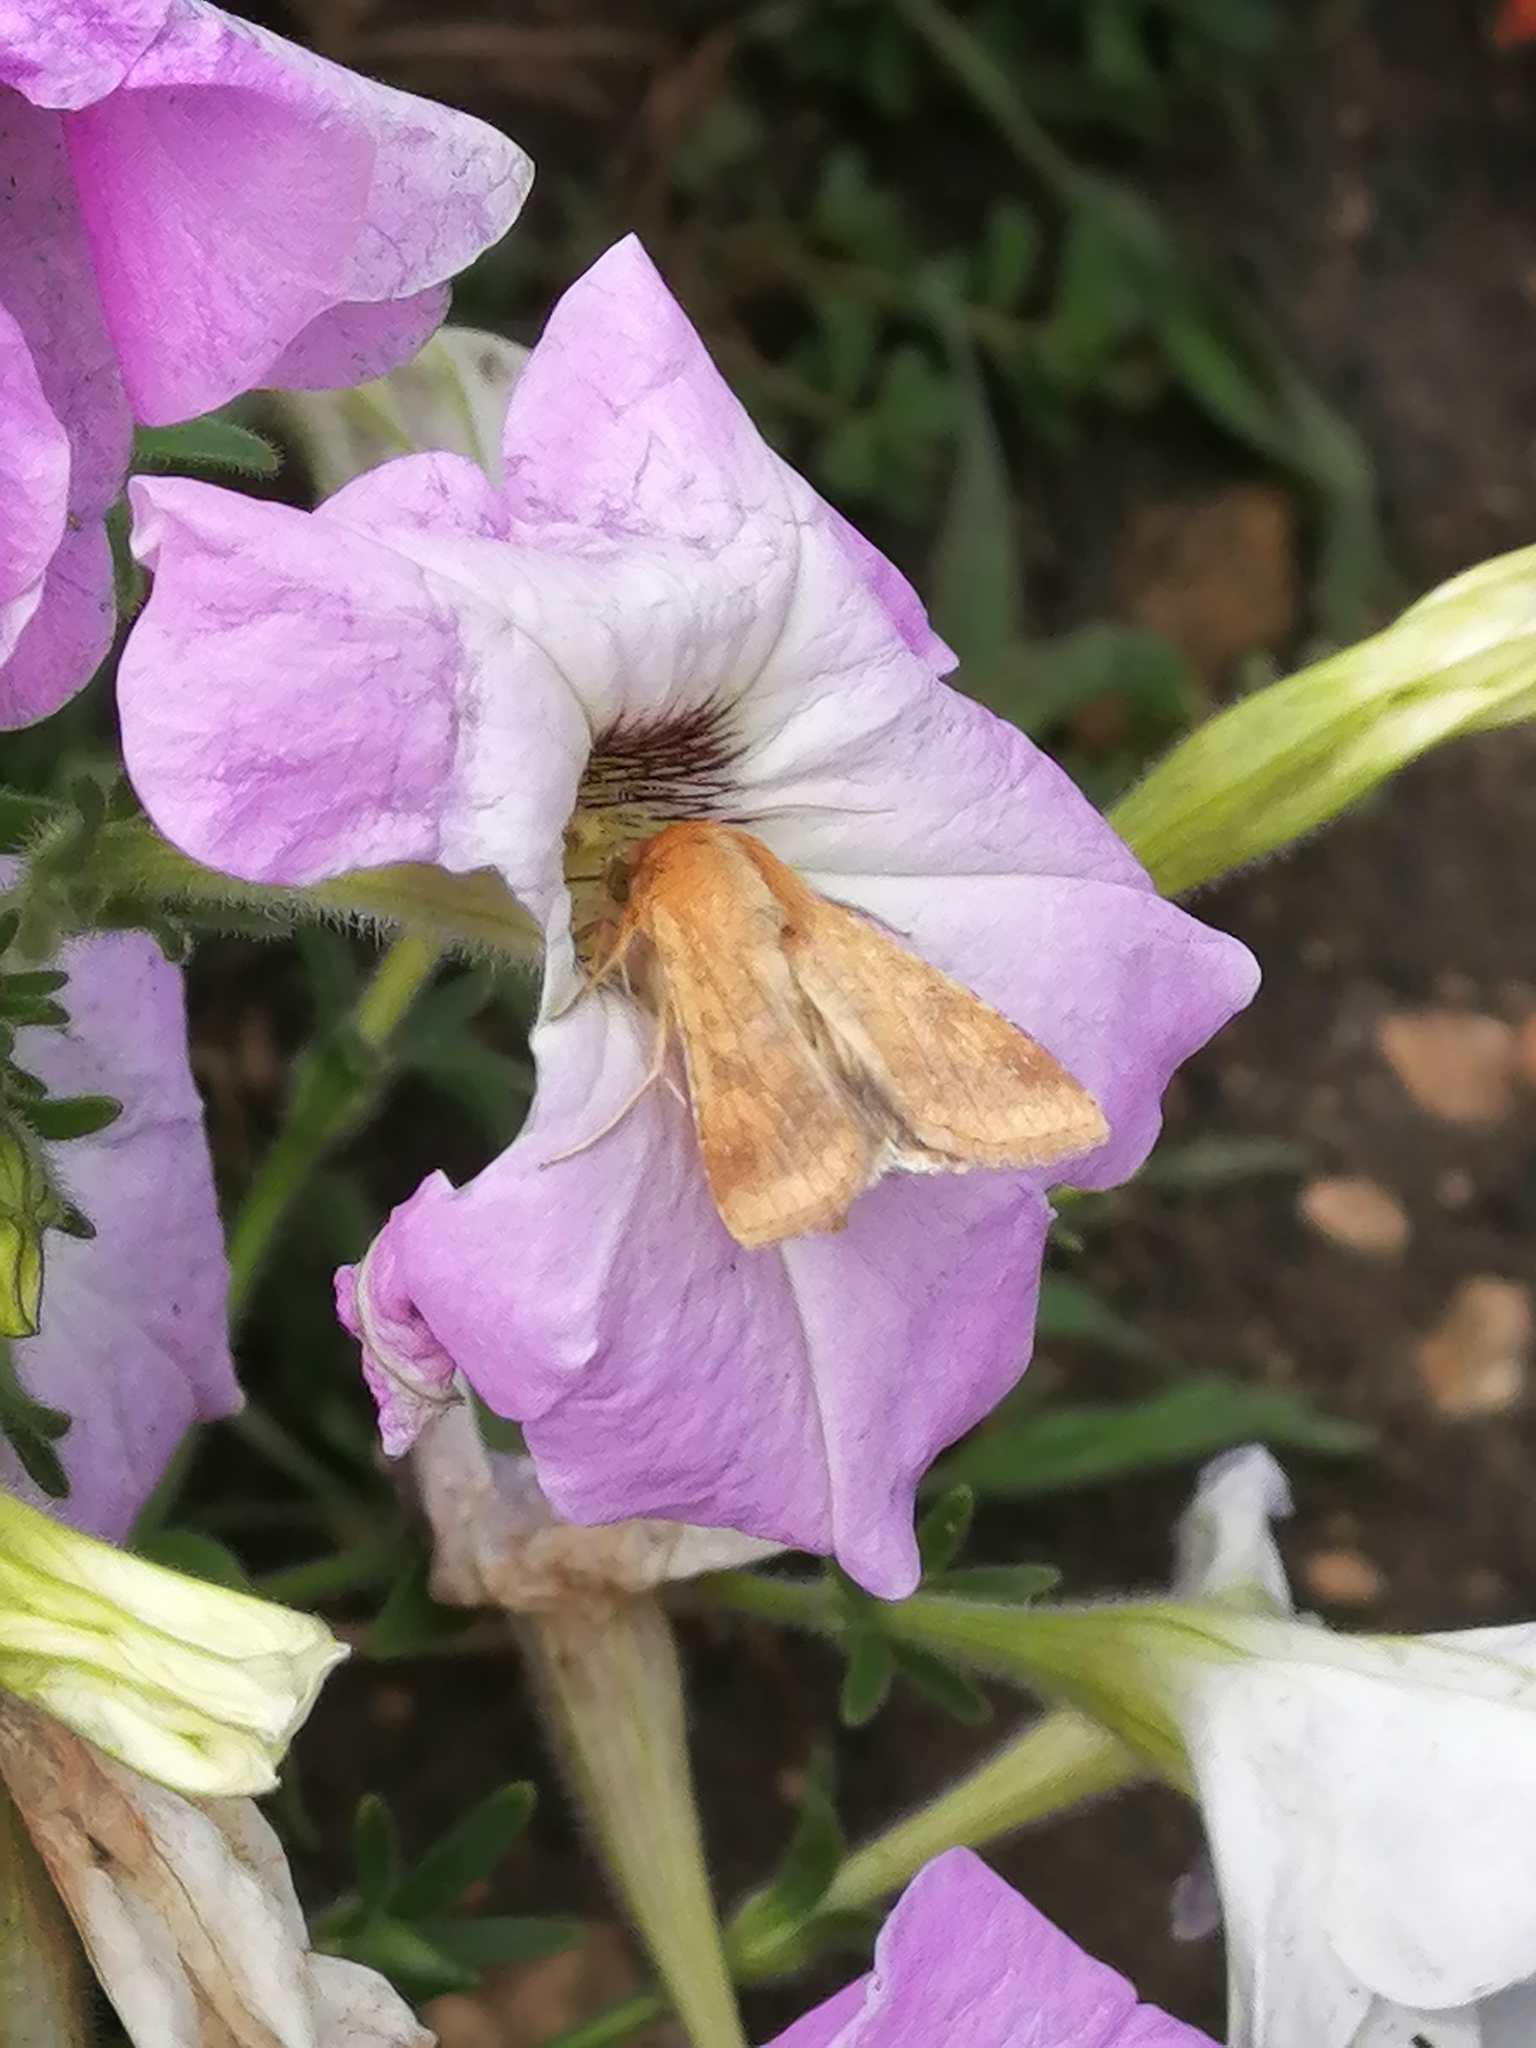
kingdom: Animalia
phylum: Arthropoda
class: Insecta
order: Lepidoptera
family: Noctuidae
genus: Helicoverpa
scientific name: Helicoverpa armigera
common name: Cotton bollworm
